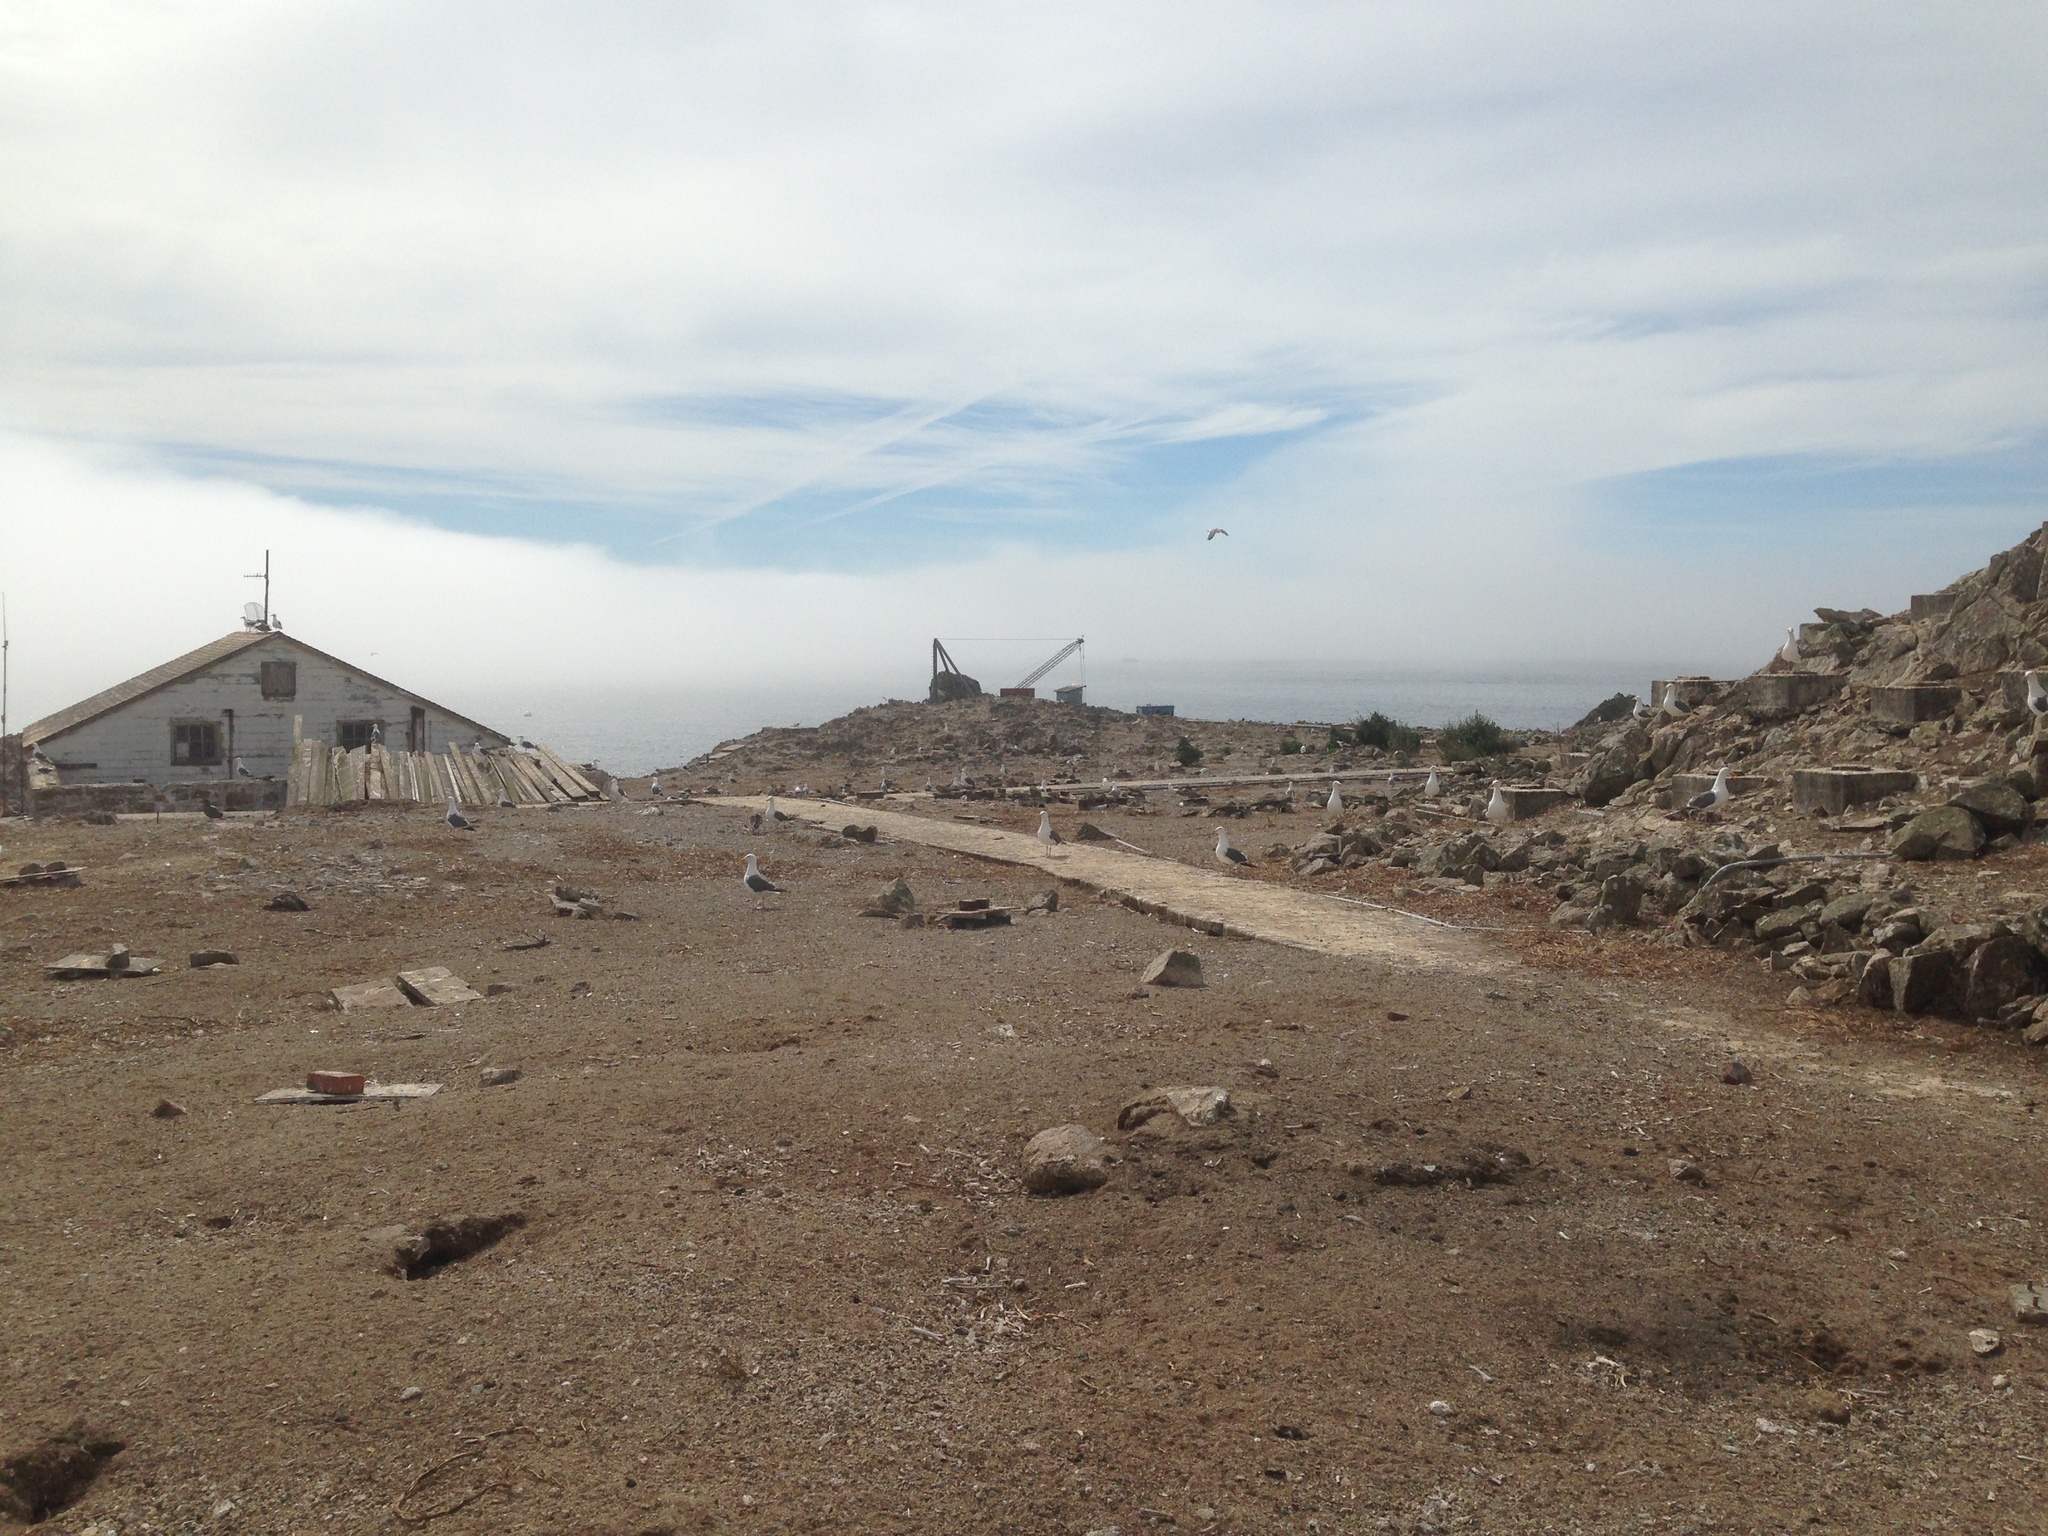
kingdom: Animalia
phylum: Chordata
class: Aves
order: Charadriiformes
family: Laridae
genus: Larus
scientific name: Larus occidentalis
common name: Western gull
